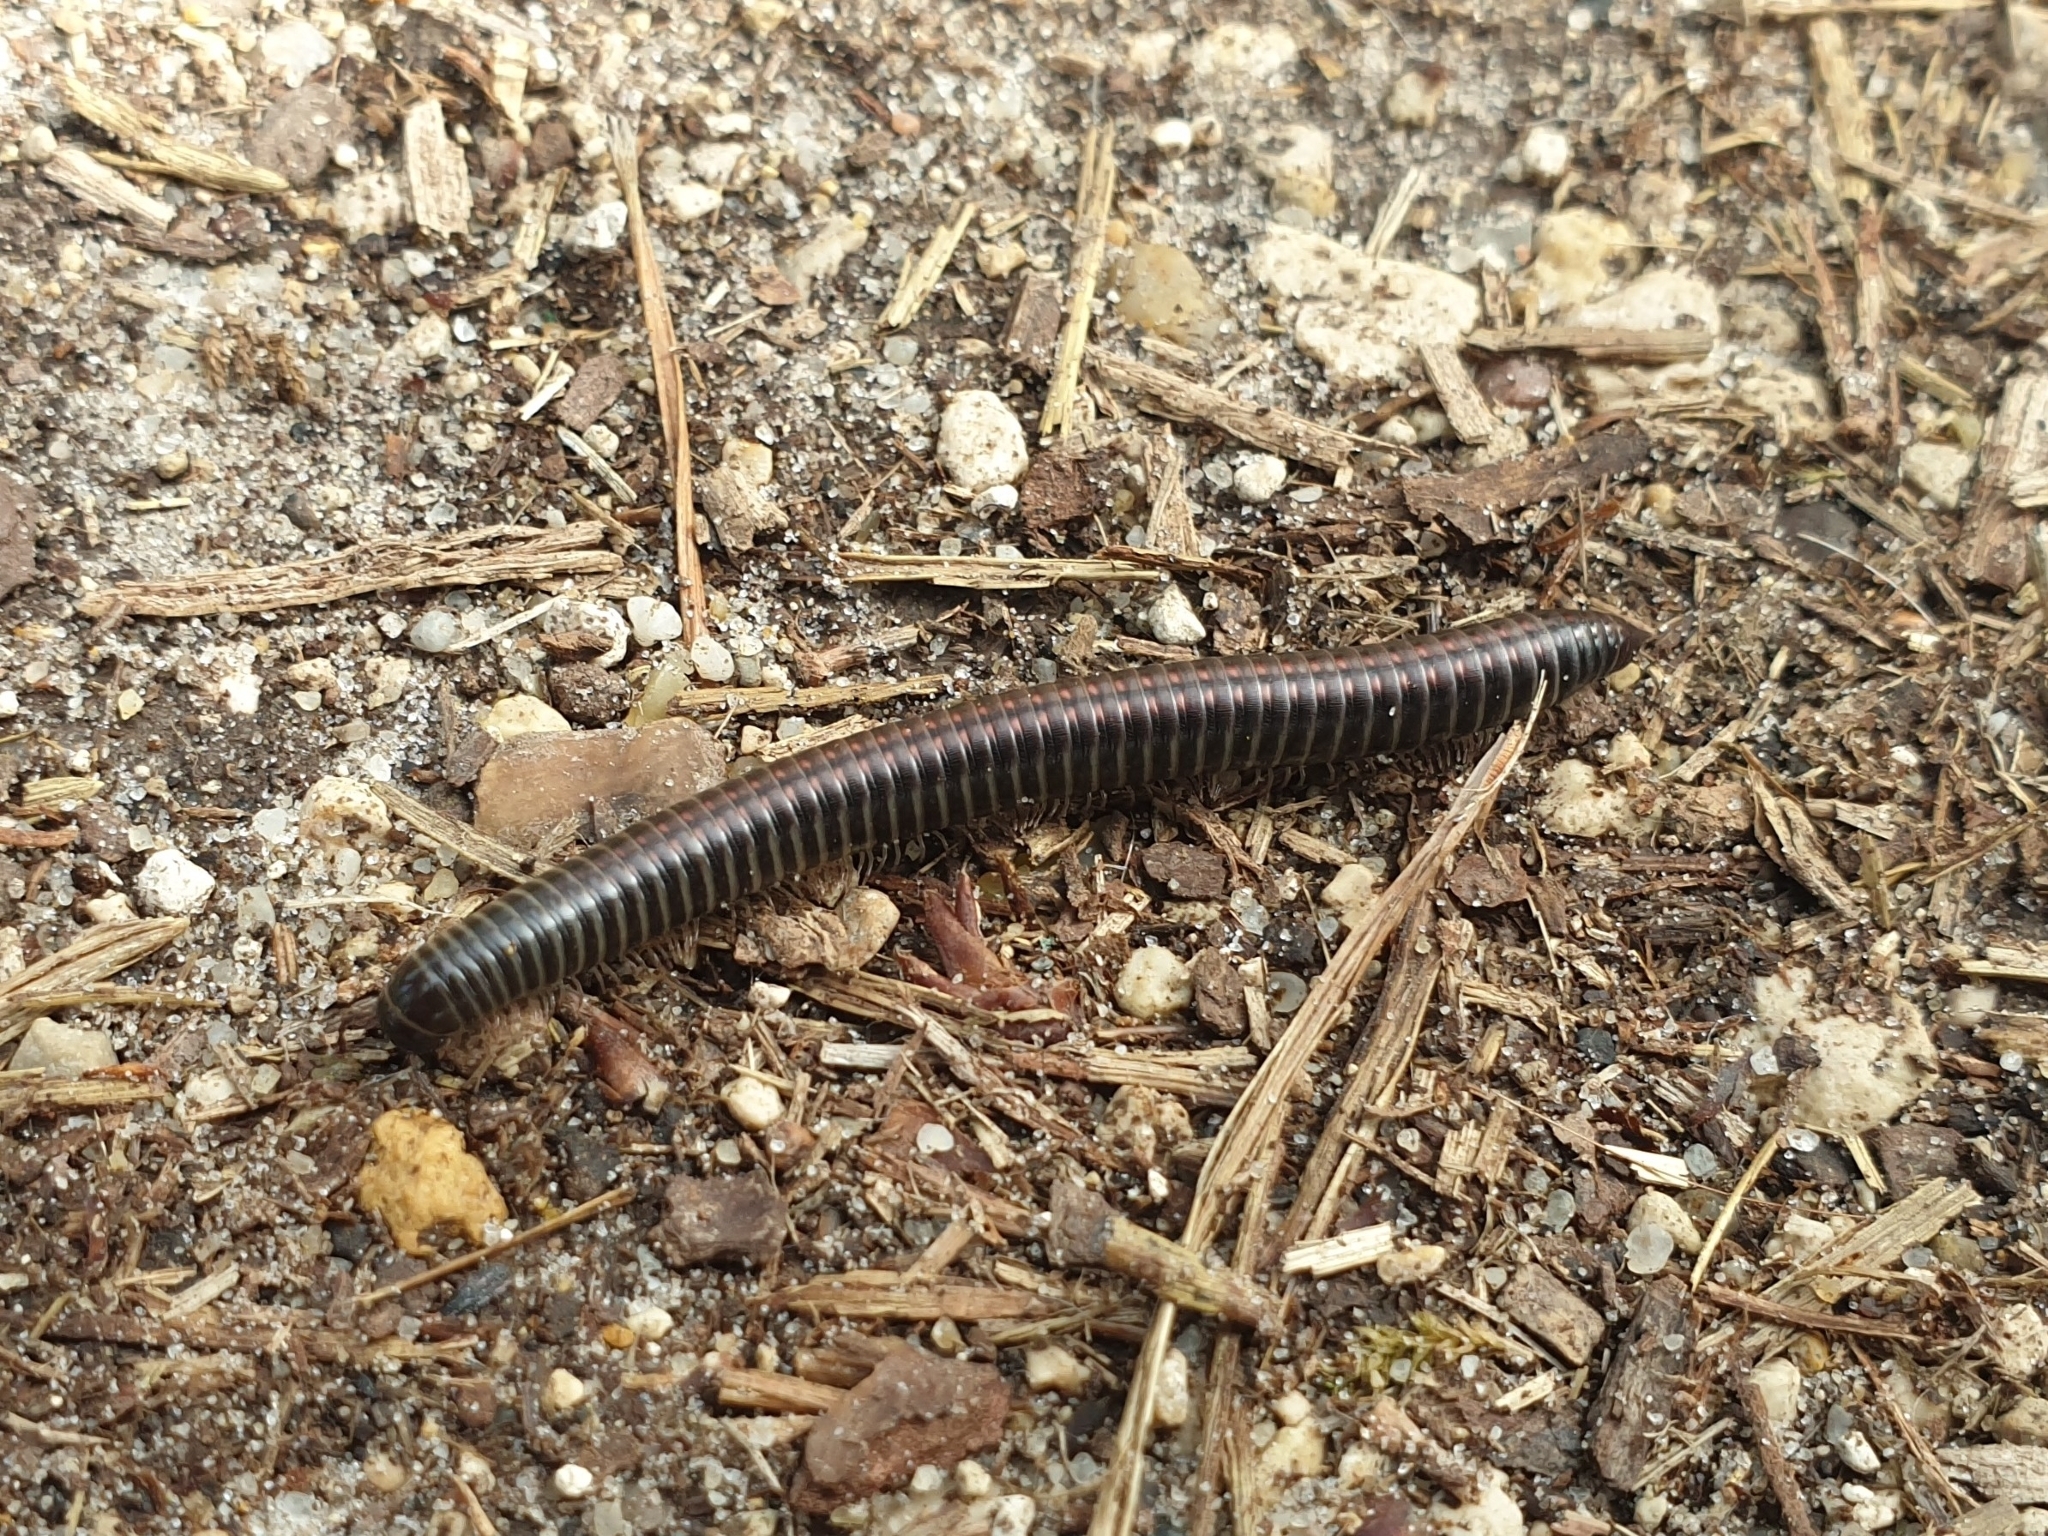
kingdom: Animalia
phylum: Arthropoda
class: Diplopoda
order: Julida
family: Julidae
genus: Ommatoiulus
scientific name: Ommatoiulus sabulosus
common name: Striped millipede
